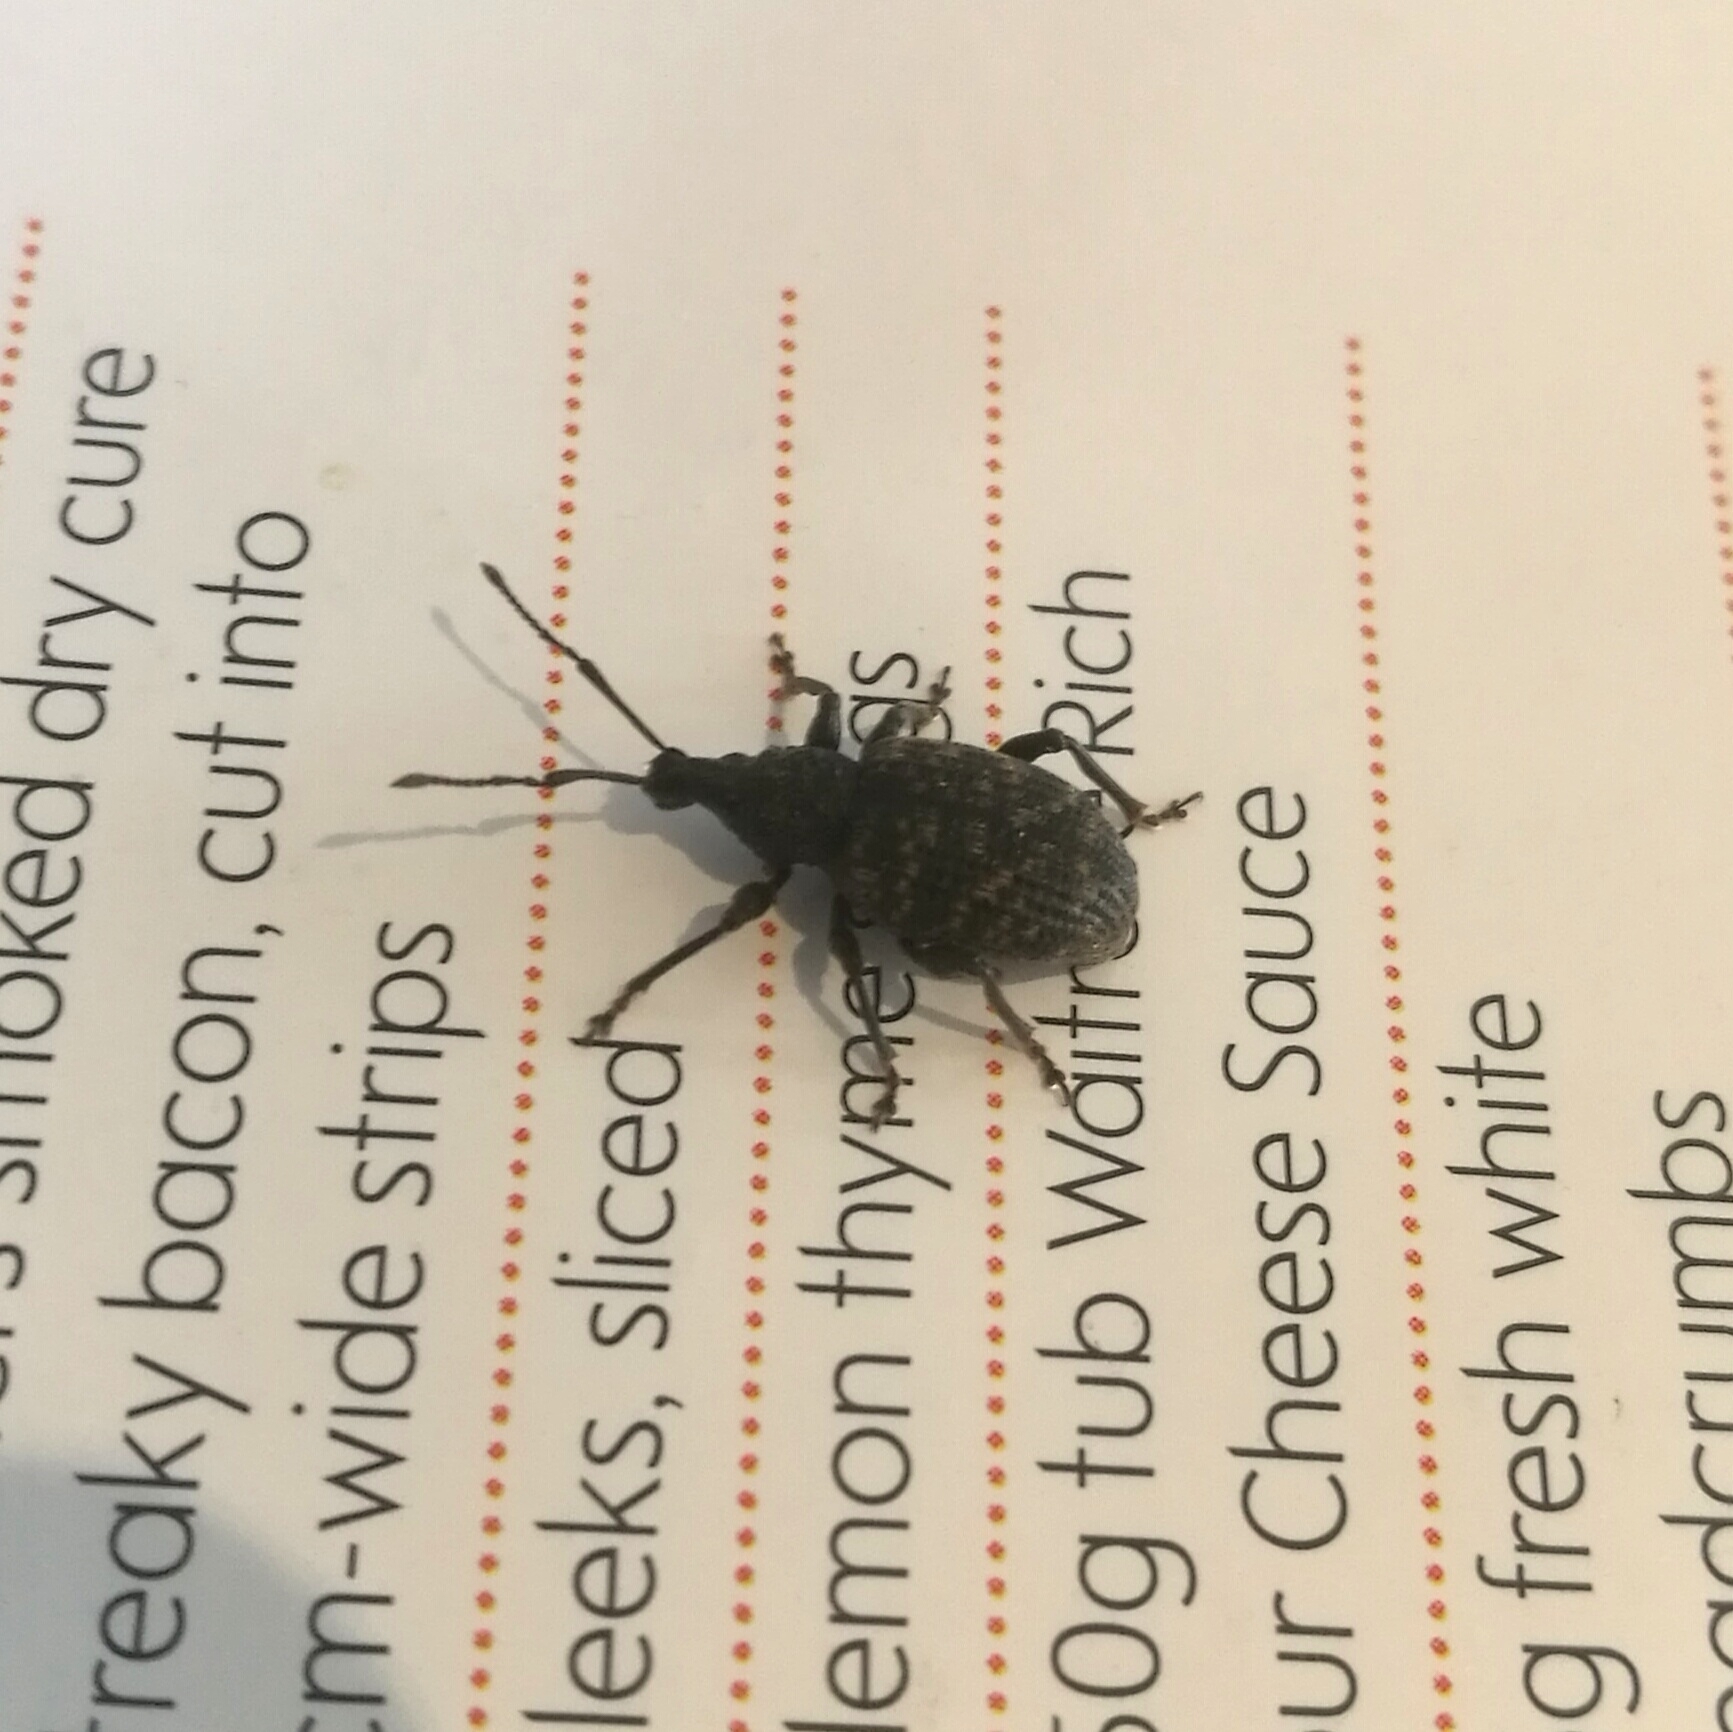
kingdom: Animalia
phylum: Arthropoda
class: Insecta
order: Coleoptera
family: Curculionidae
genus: Otiorhynchus
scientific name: Otiorhynchus sulcatus
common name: Black vine weevil
